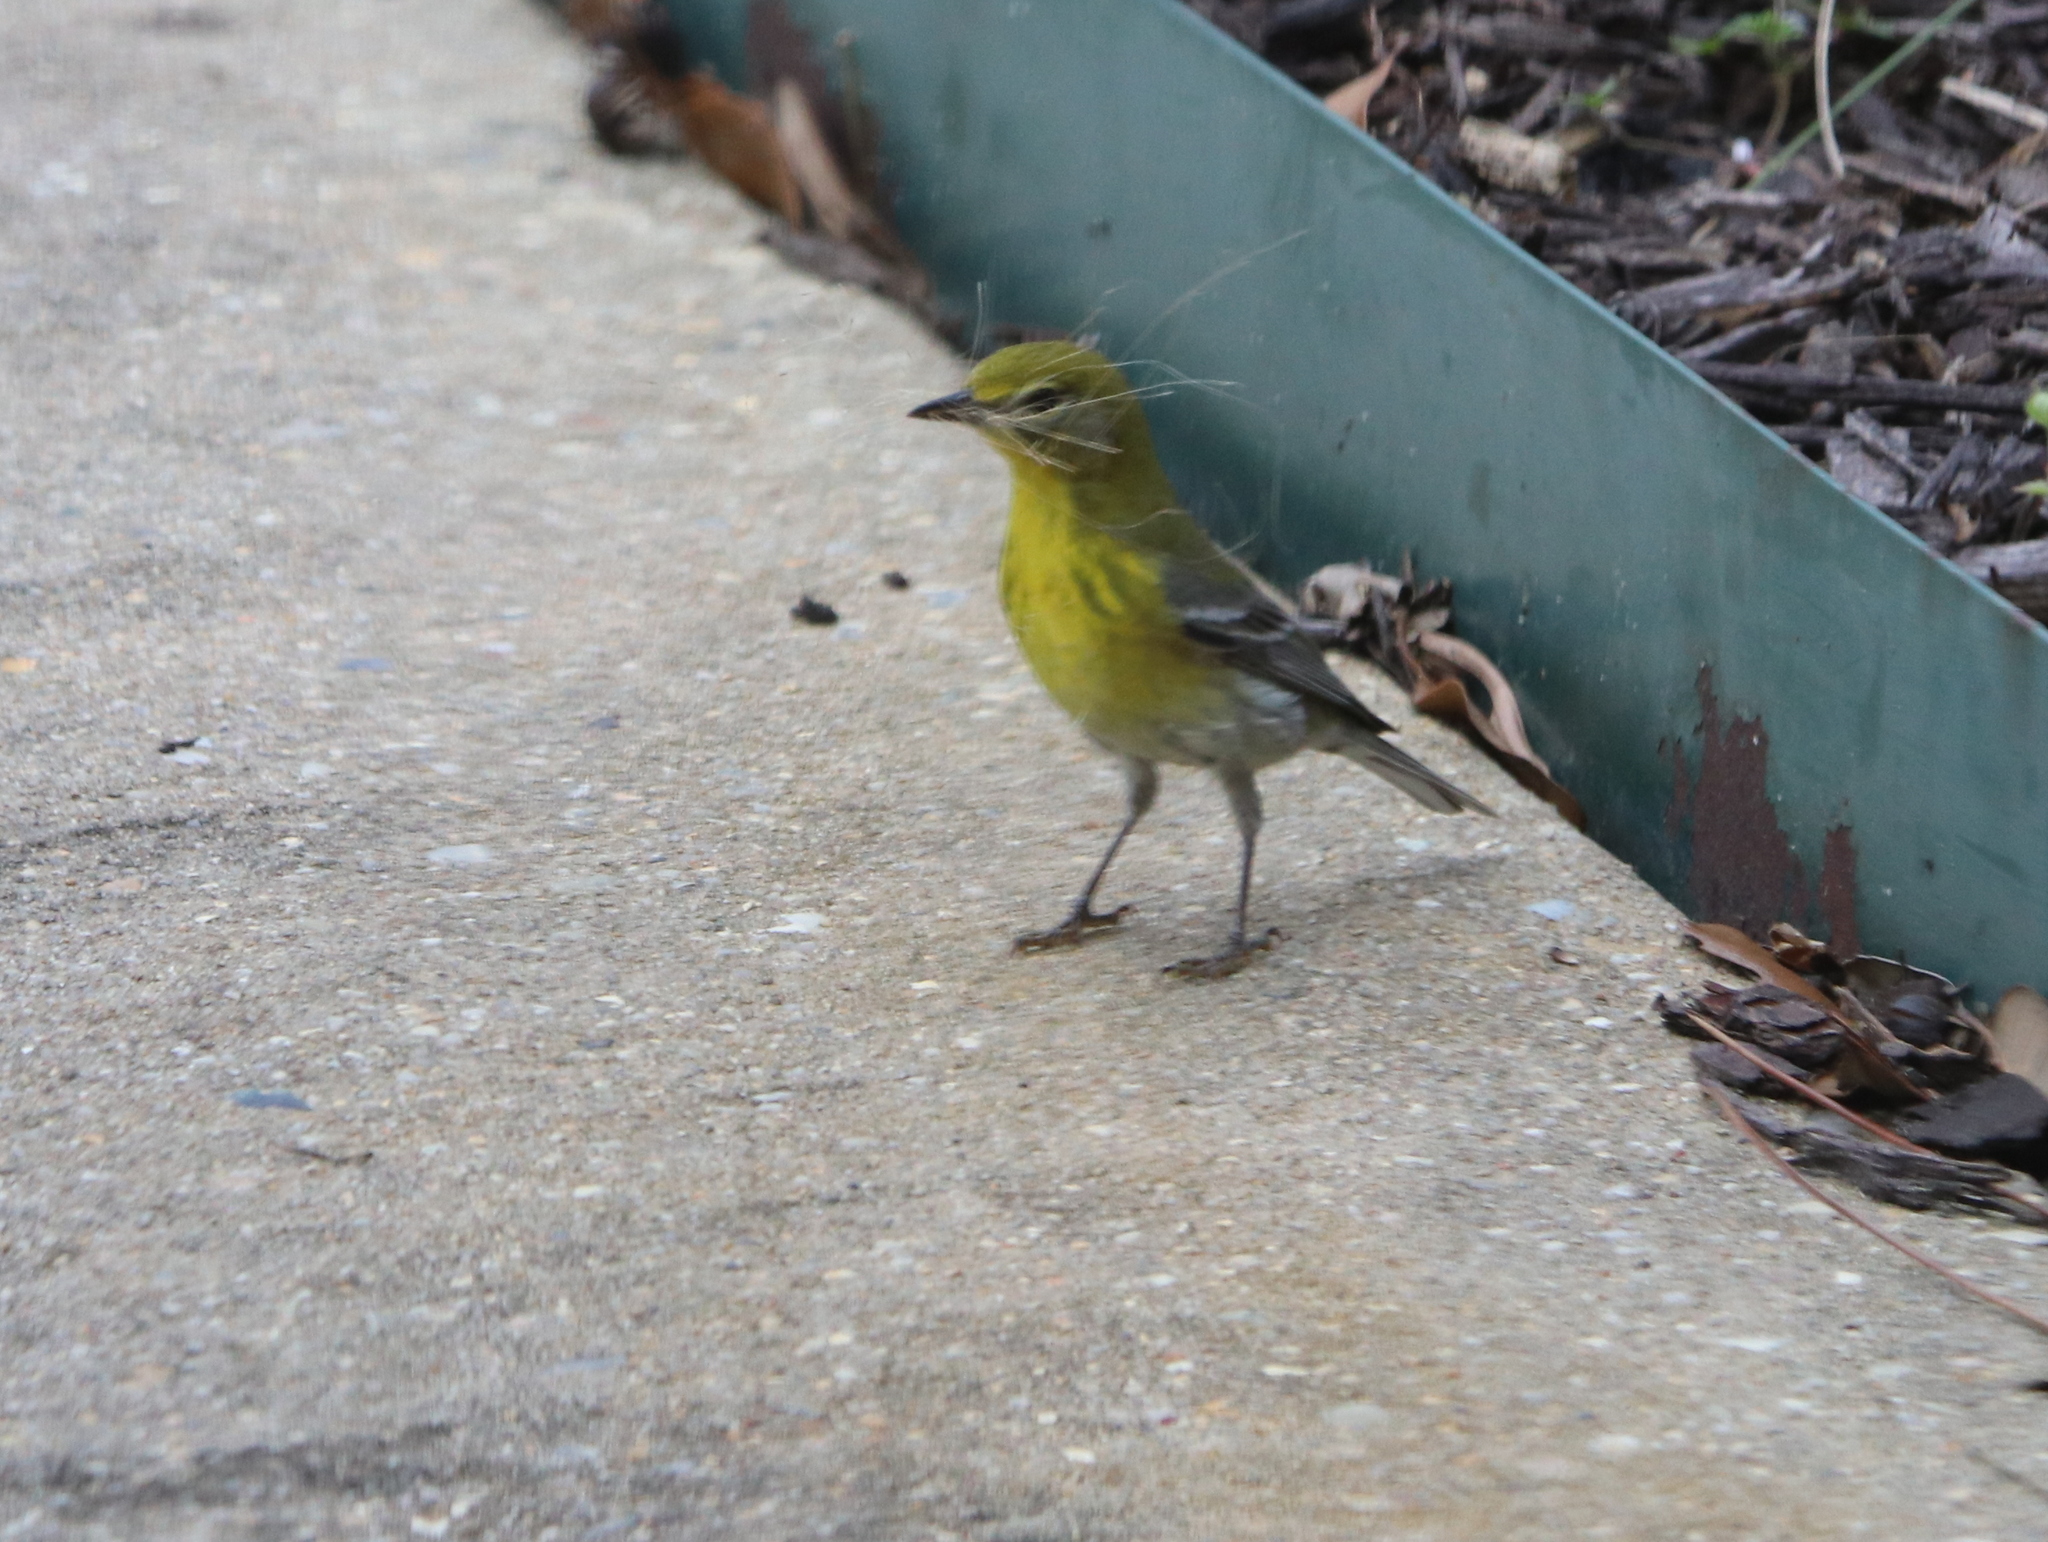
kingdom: Animalia
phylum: Chordata
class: Aves
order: Passeriformes
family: Parulidae
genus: Setophaga
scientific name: Setophaga pinus
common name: Pine warbler
